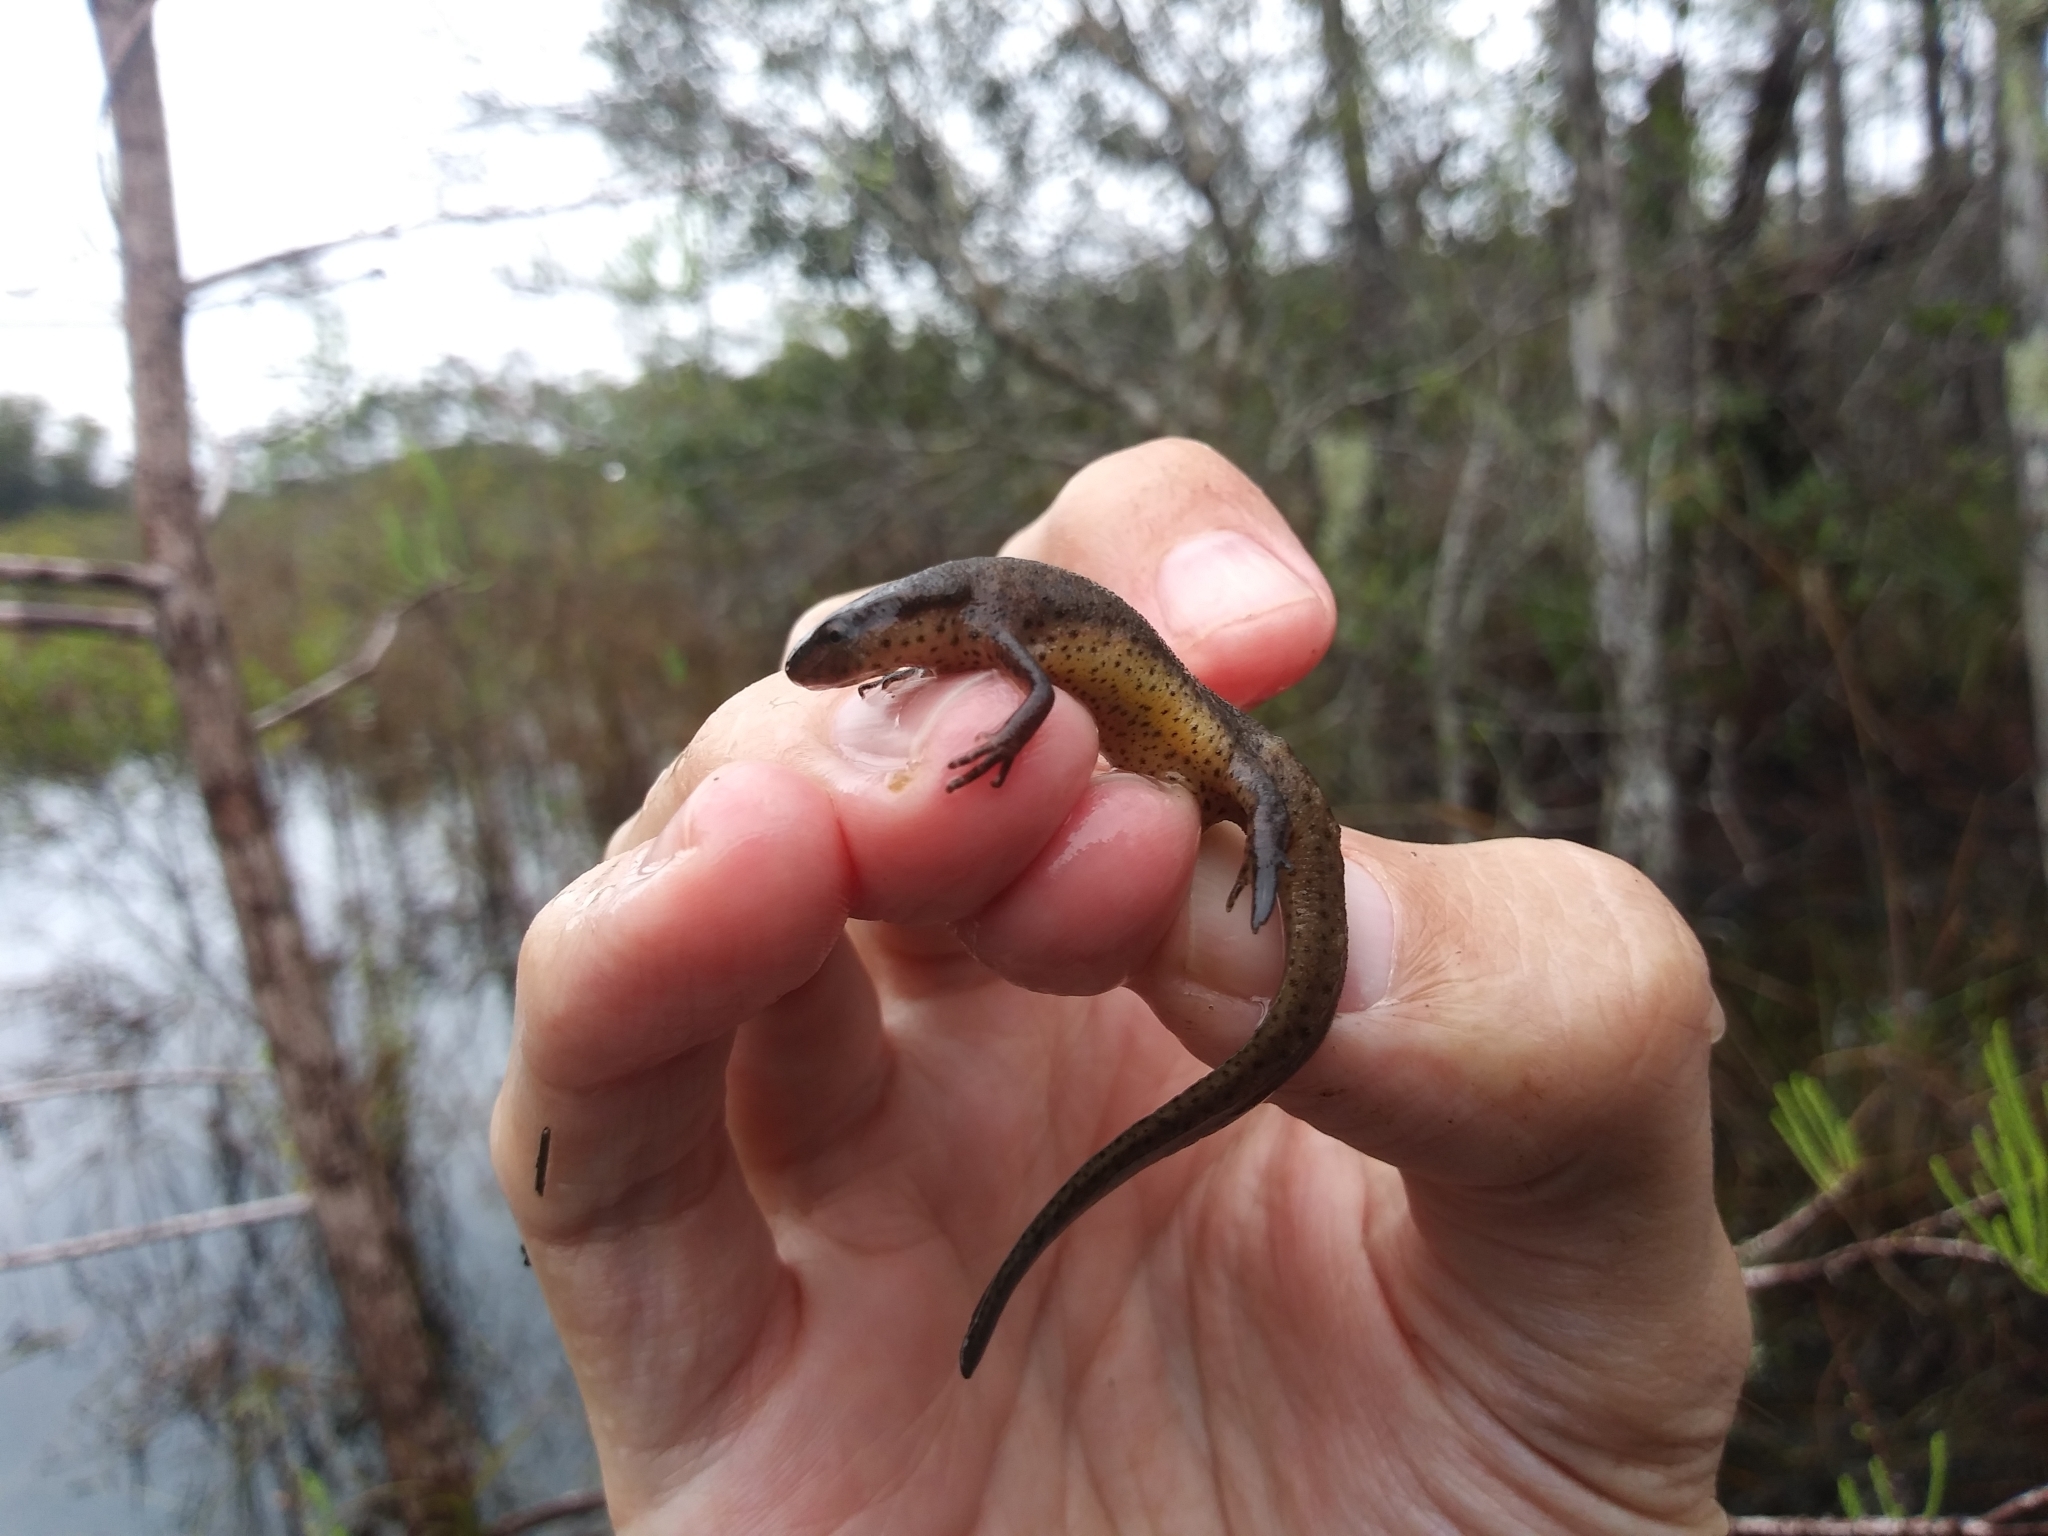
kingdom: Animalia
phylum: Chordata
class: Amphibia
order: Caudata
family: Salamandridae
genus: Notophthalmus
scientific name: Notophthalmus viridescens
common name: Eastern newt
